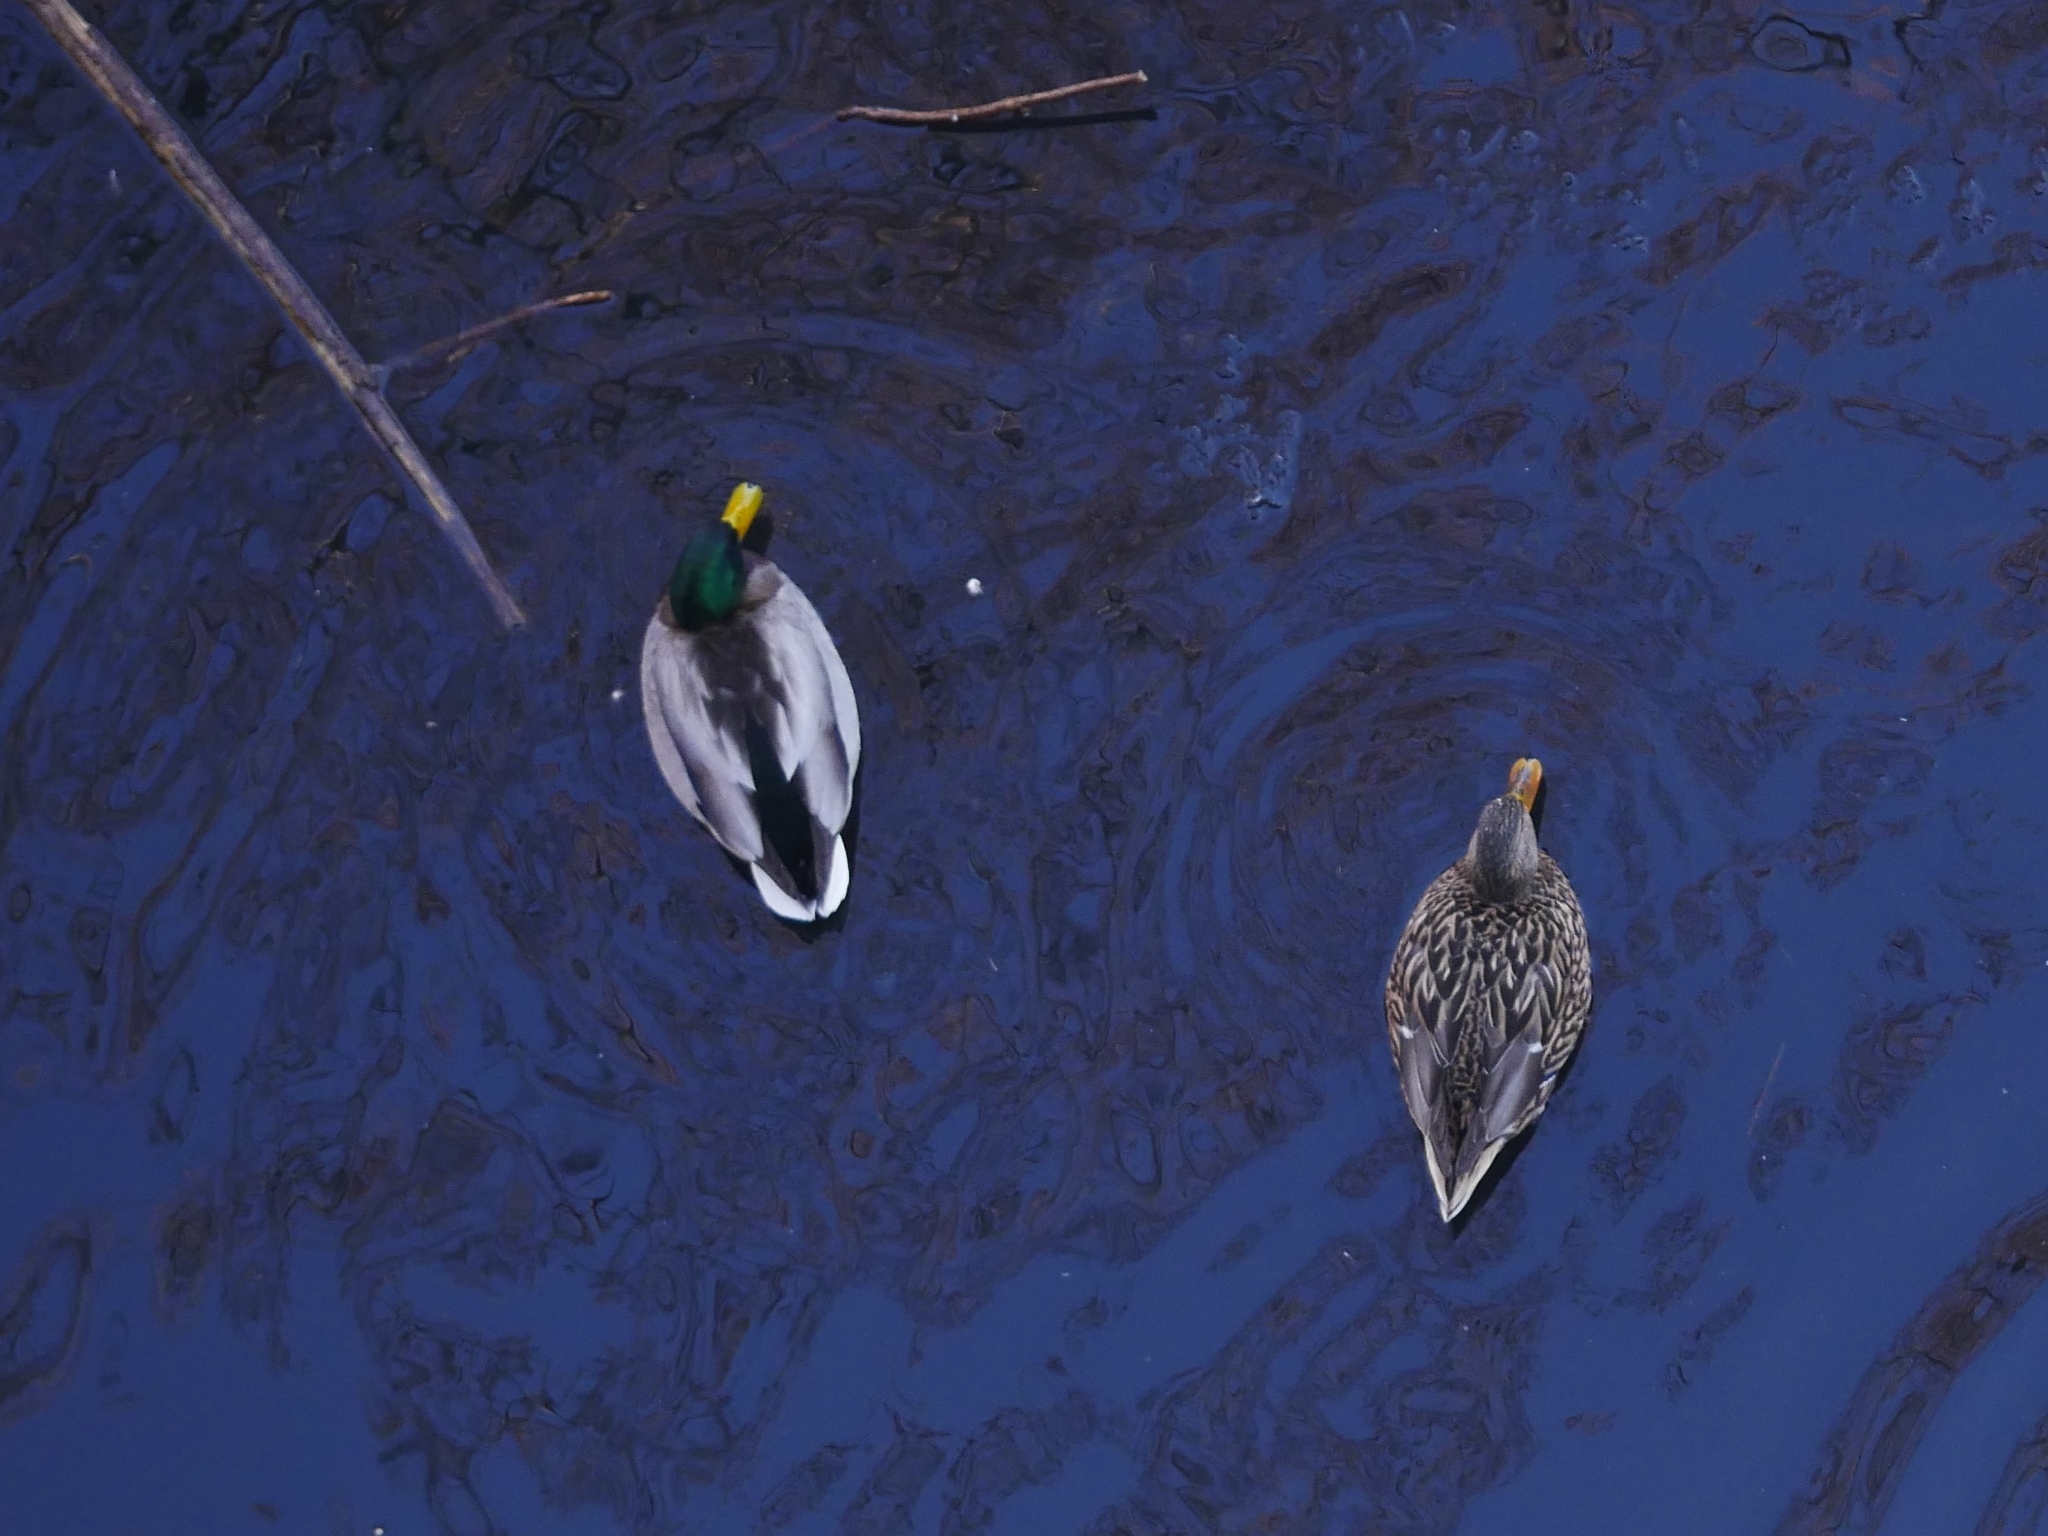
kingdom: Animalia
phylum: Chordata
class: Aves
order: Anseriformes
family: Anatidae
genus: Anas
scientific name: Anas platyrhynchos
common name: Mallard
